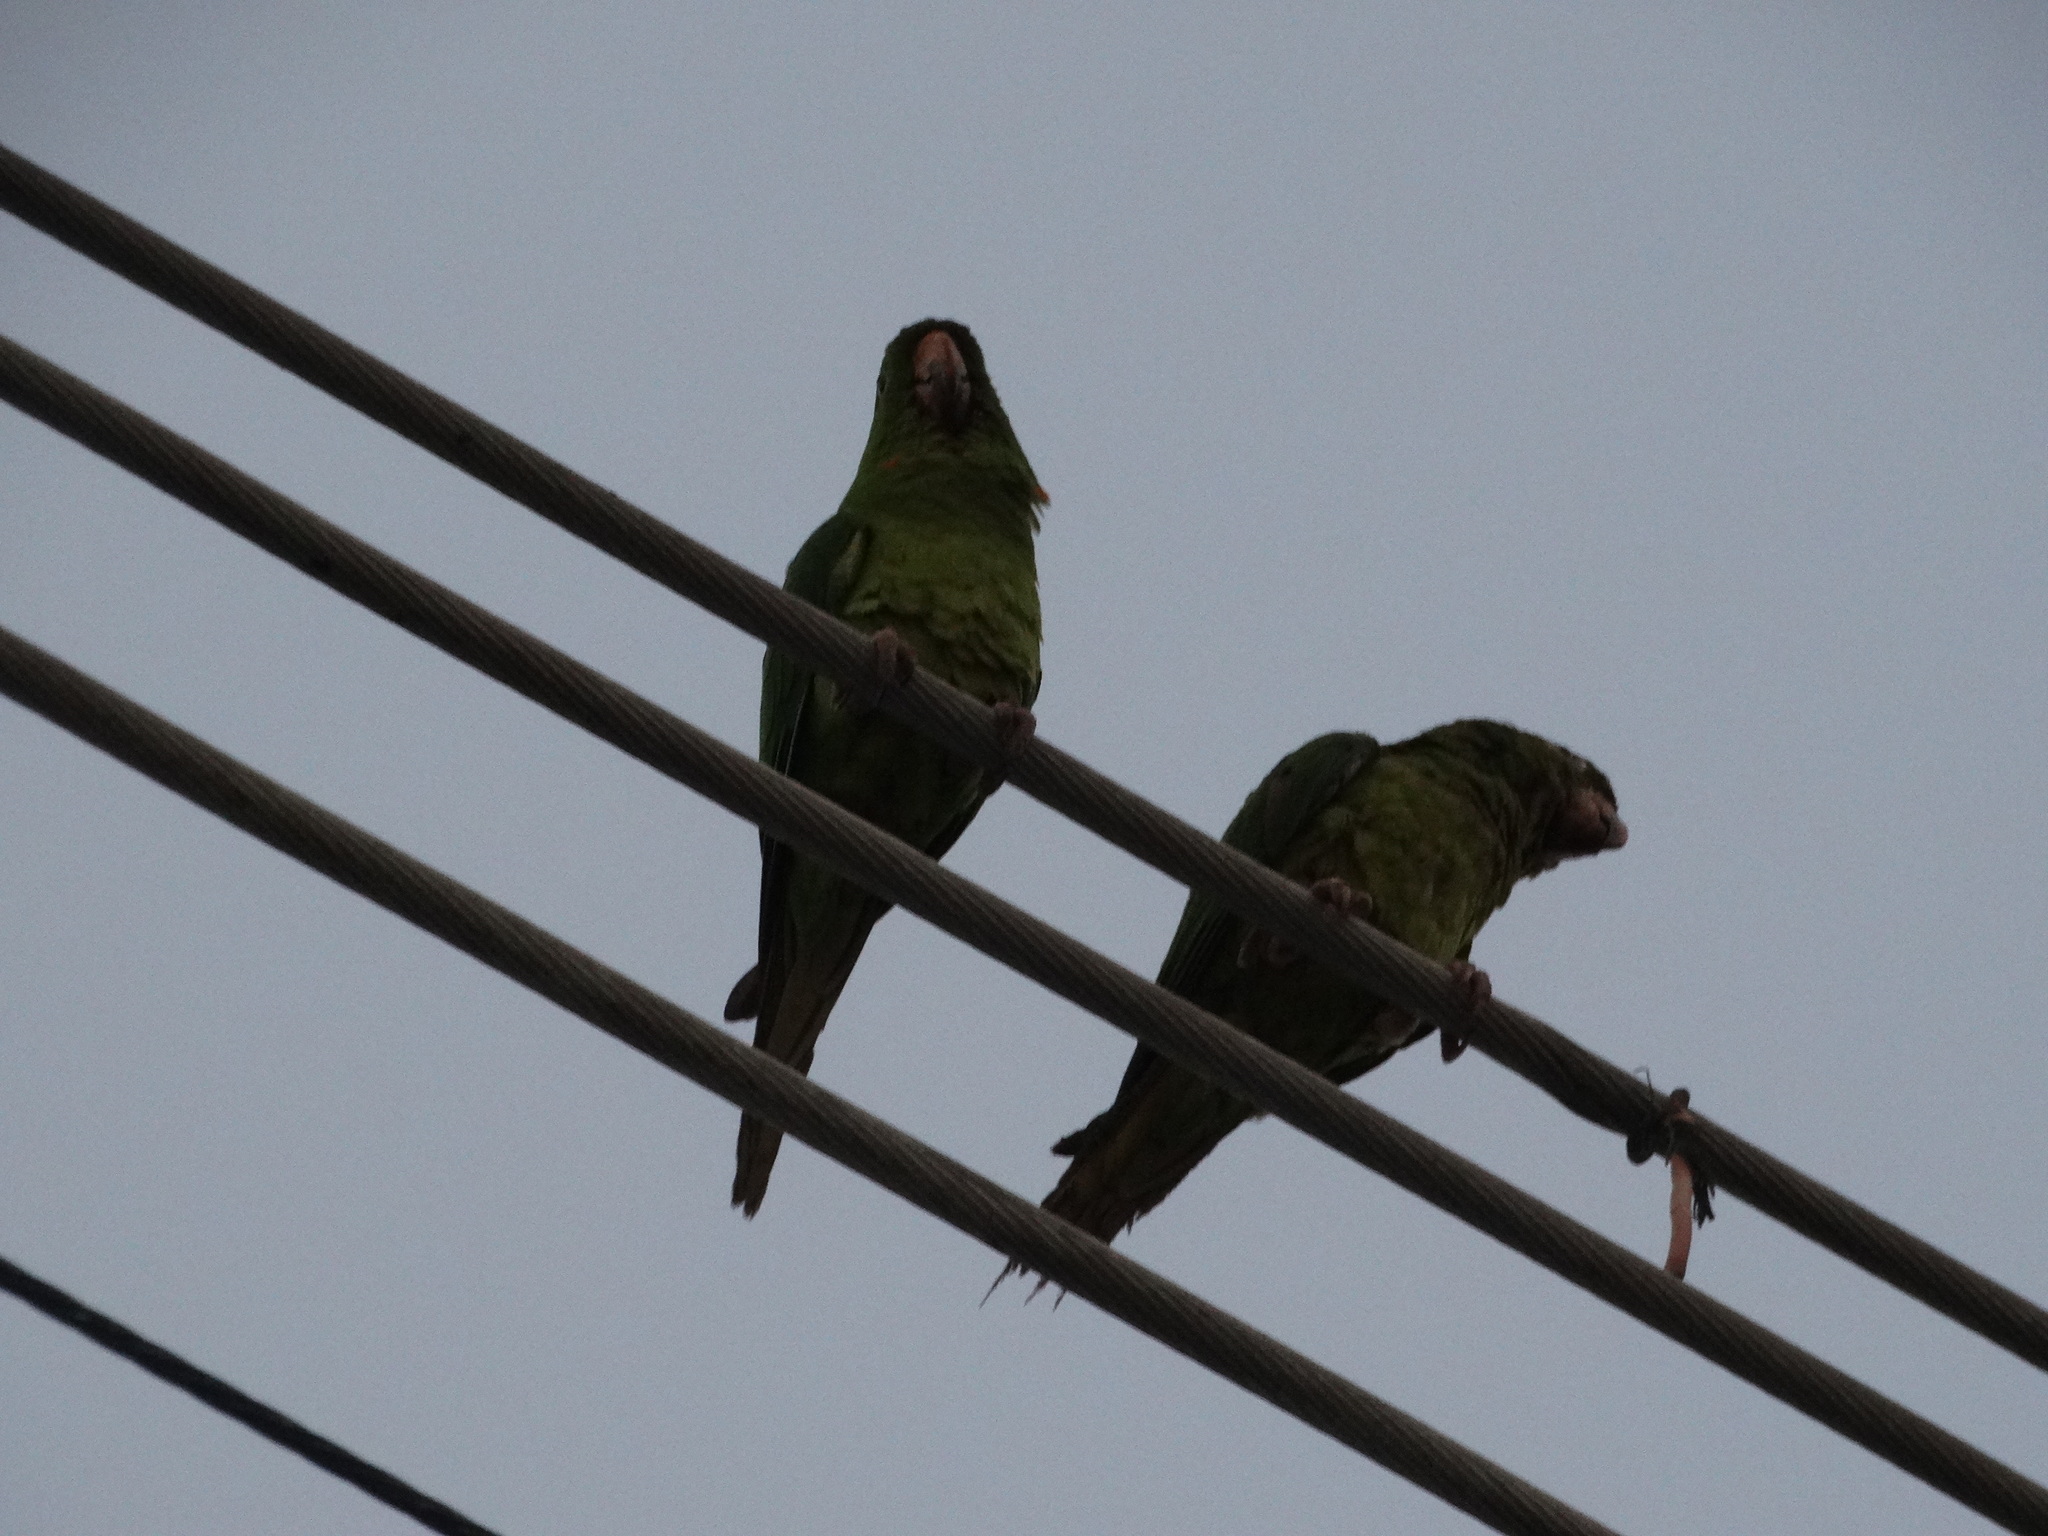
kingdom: Animalia
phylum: Chordata
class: Aves
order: Psittaciformes
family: Psittacidae
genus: Aratinga
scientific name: Aratinga holochlora
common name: Green parakeet
